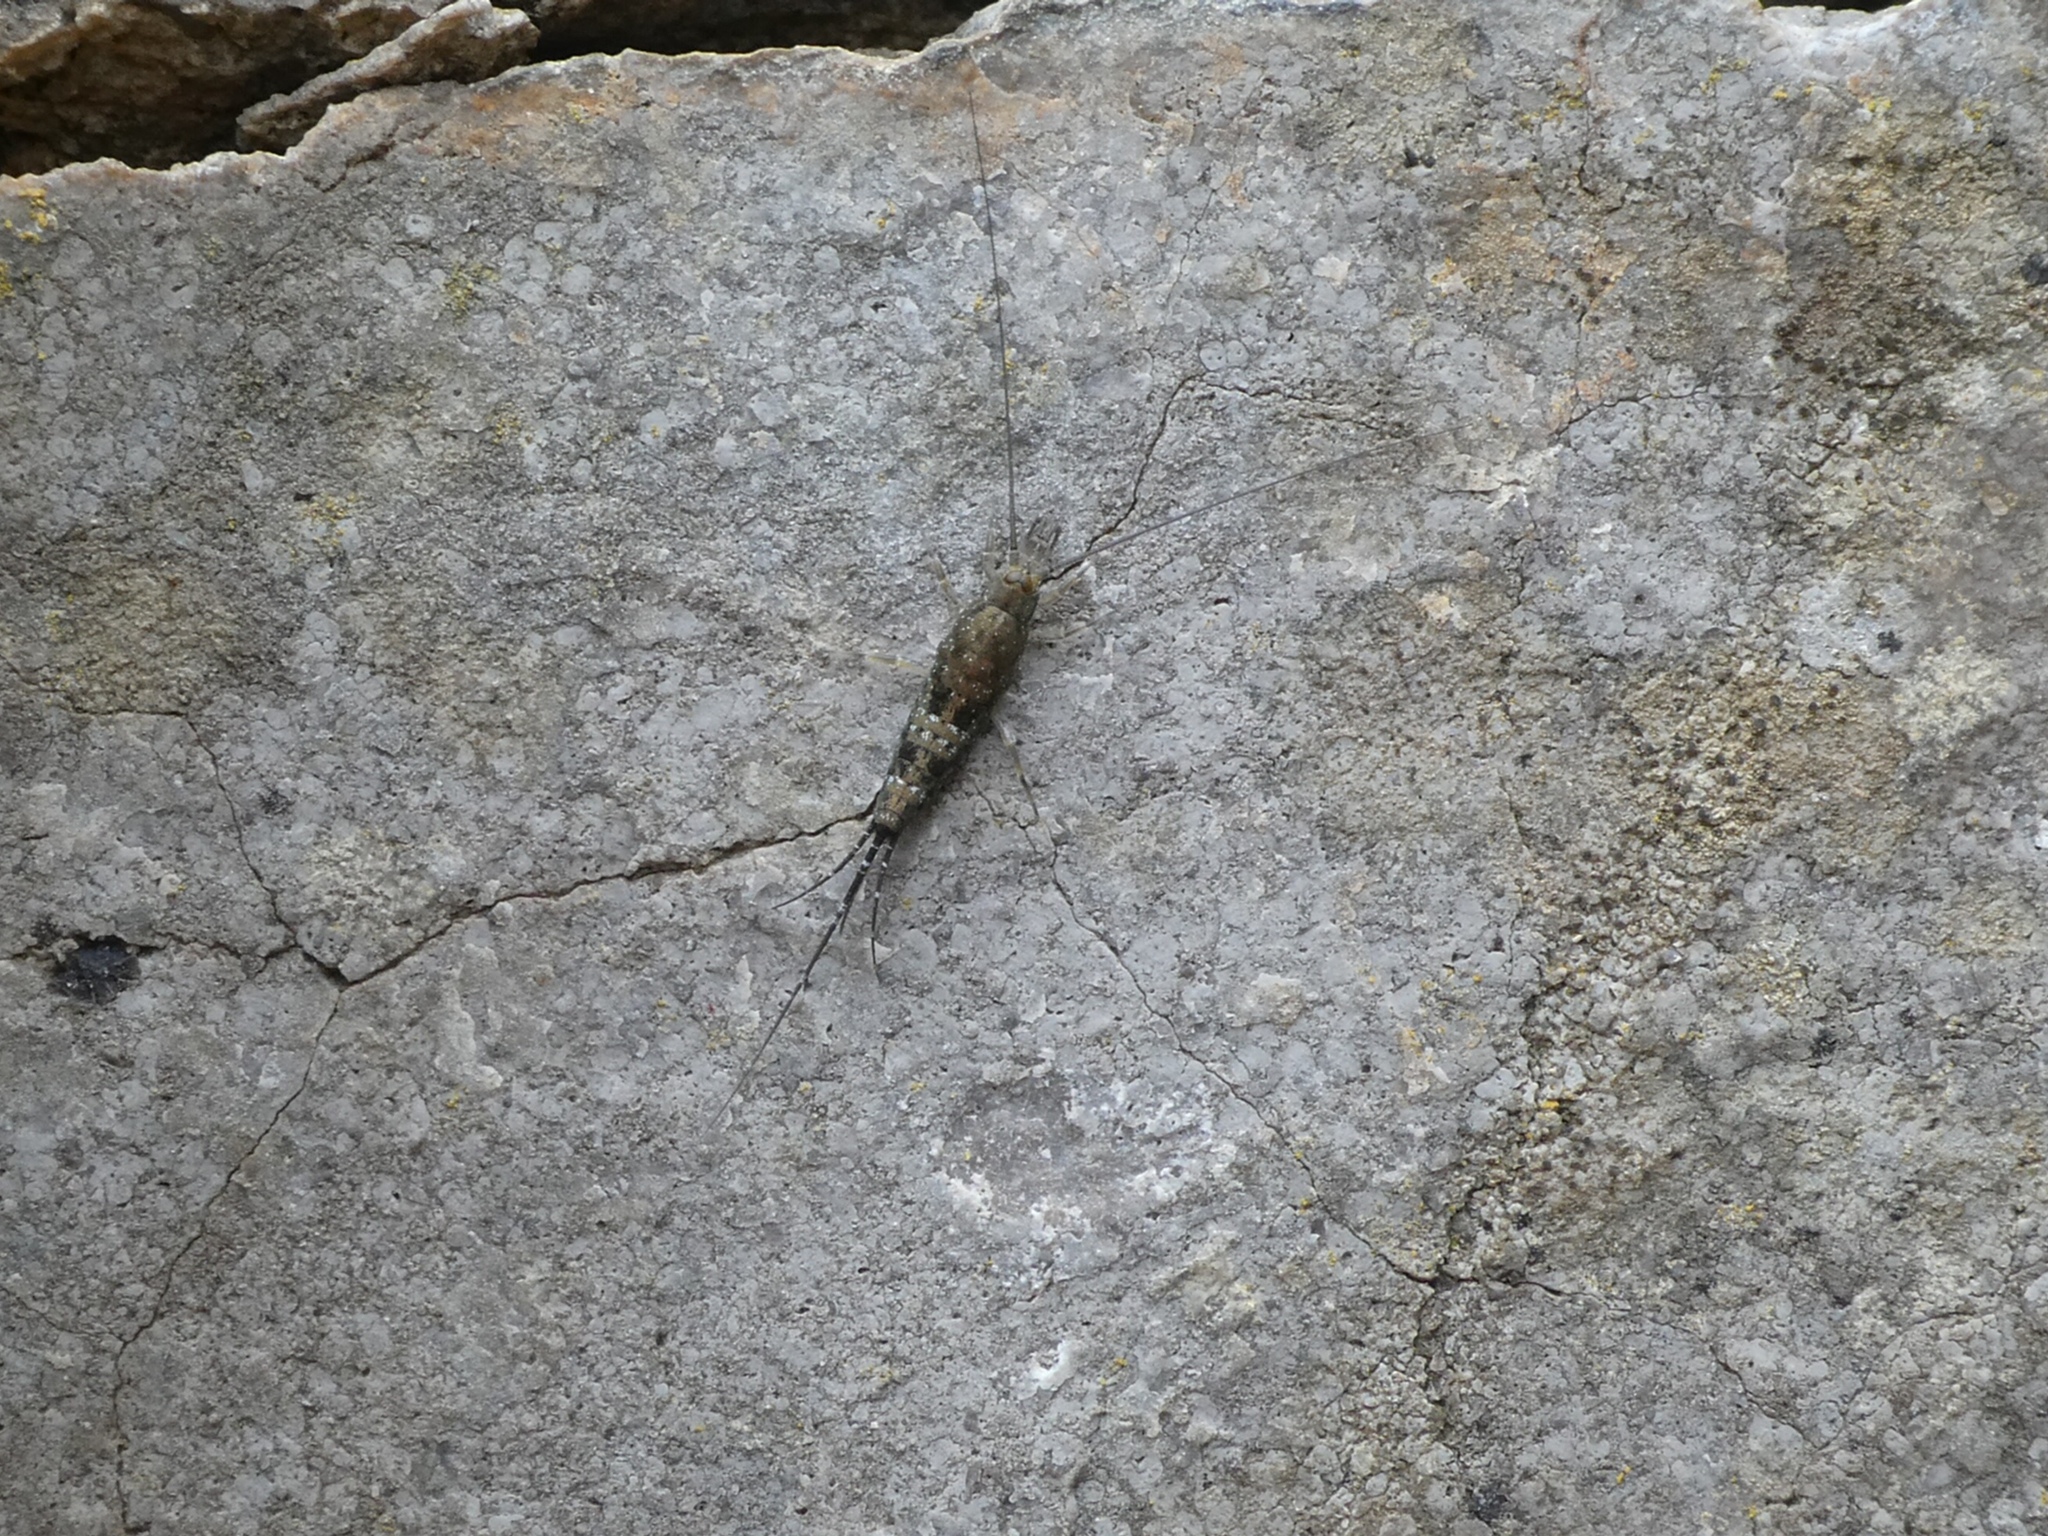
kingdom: Animalia
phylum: Arthropoda
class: Insecta
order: Archaeognatha
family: Machilidae
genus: Petrobius
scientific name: Petrobius maritimus
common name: Sea bristletail
